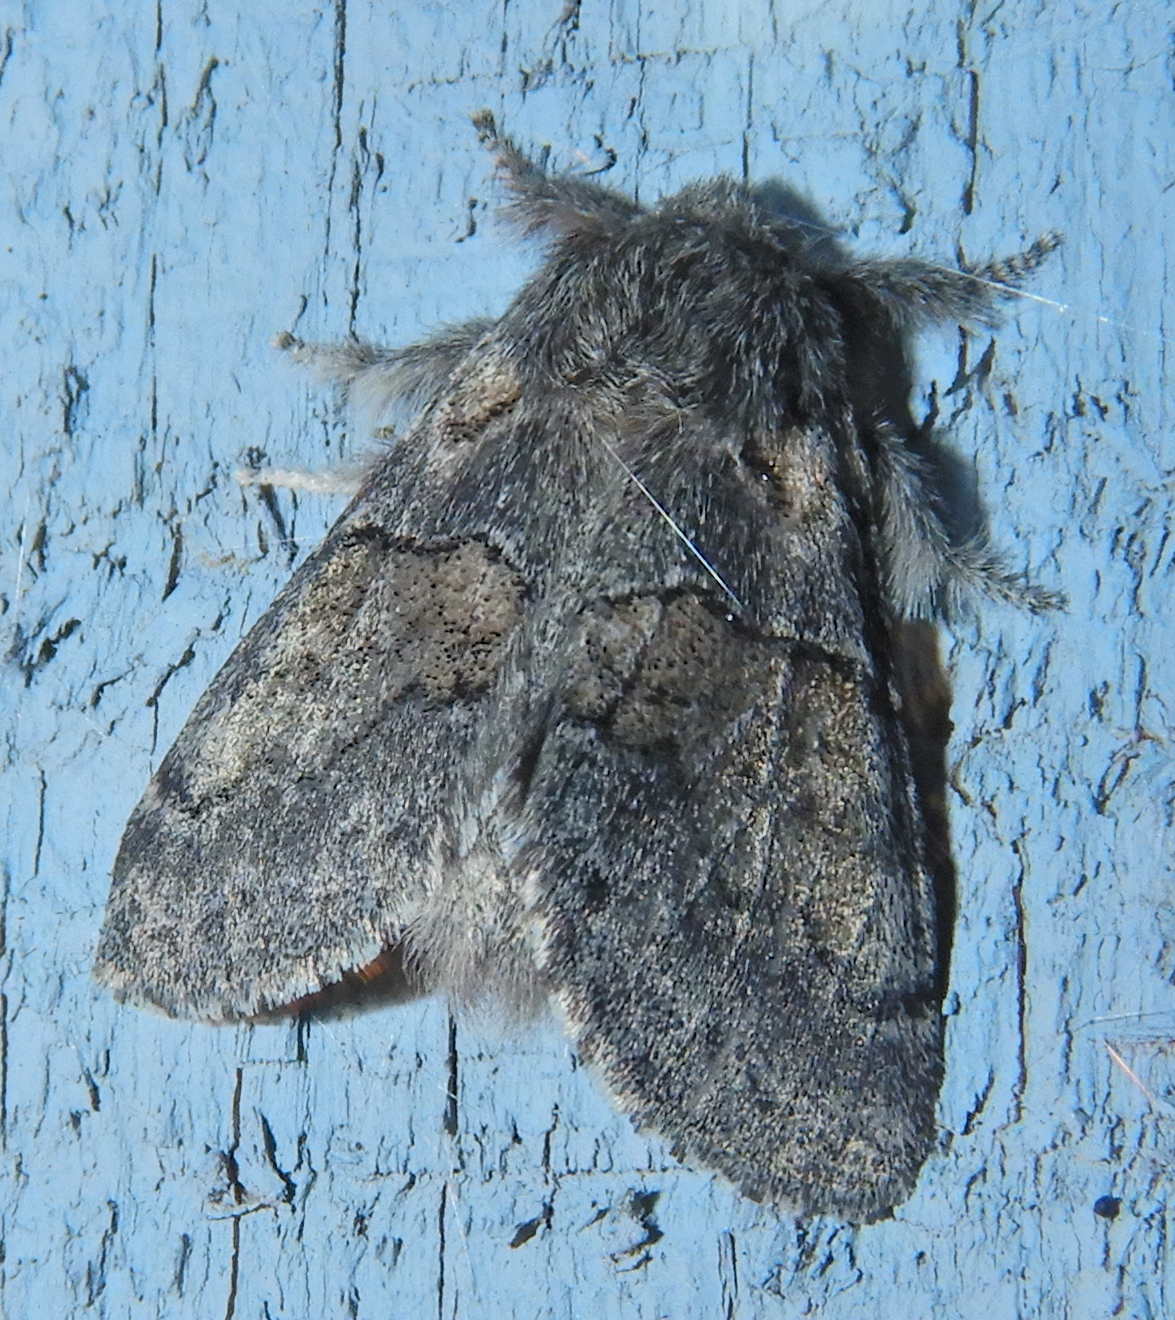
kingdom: Animalia
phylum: Arthropoda
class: Insecta
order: Lepidoptera
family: Notodontidae
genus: Gluphisia
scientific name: Gluphisia septentrionis
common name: Common gluphisia
